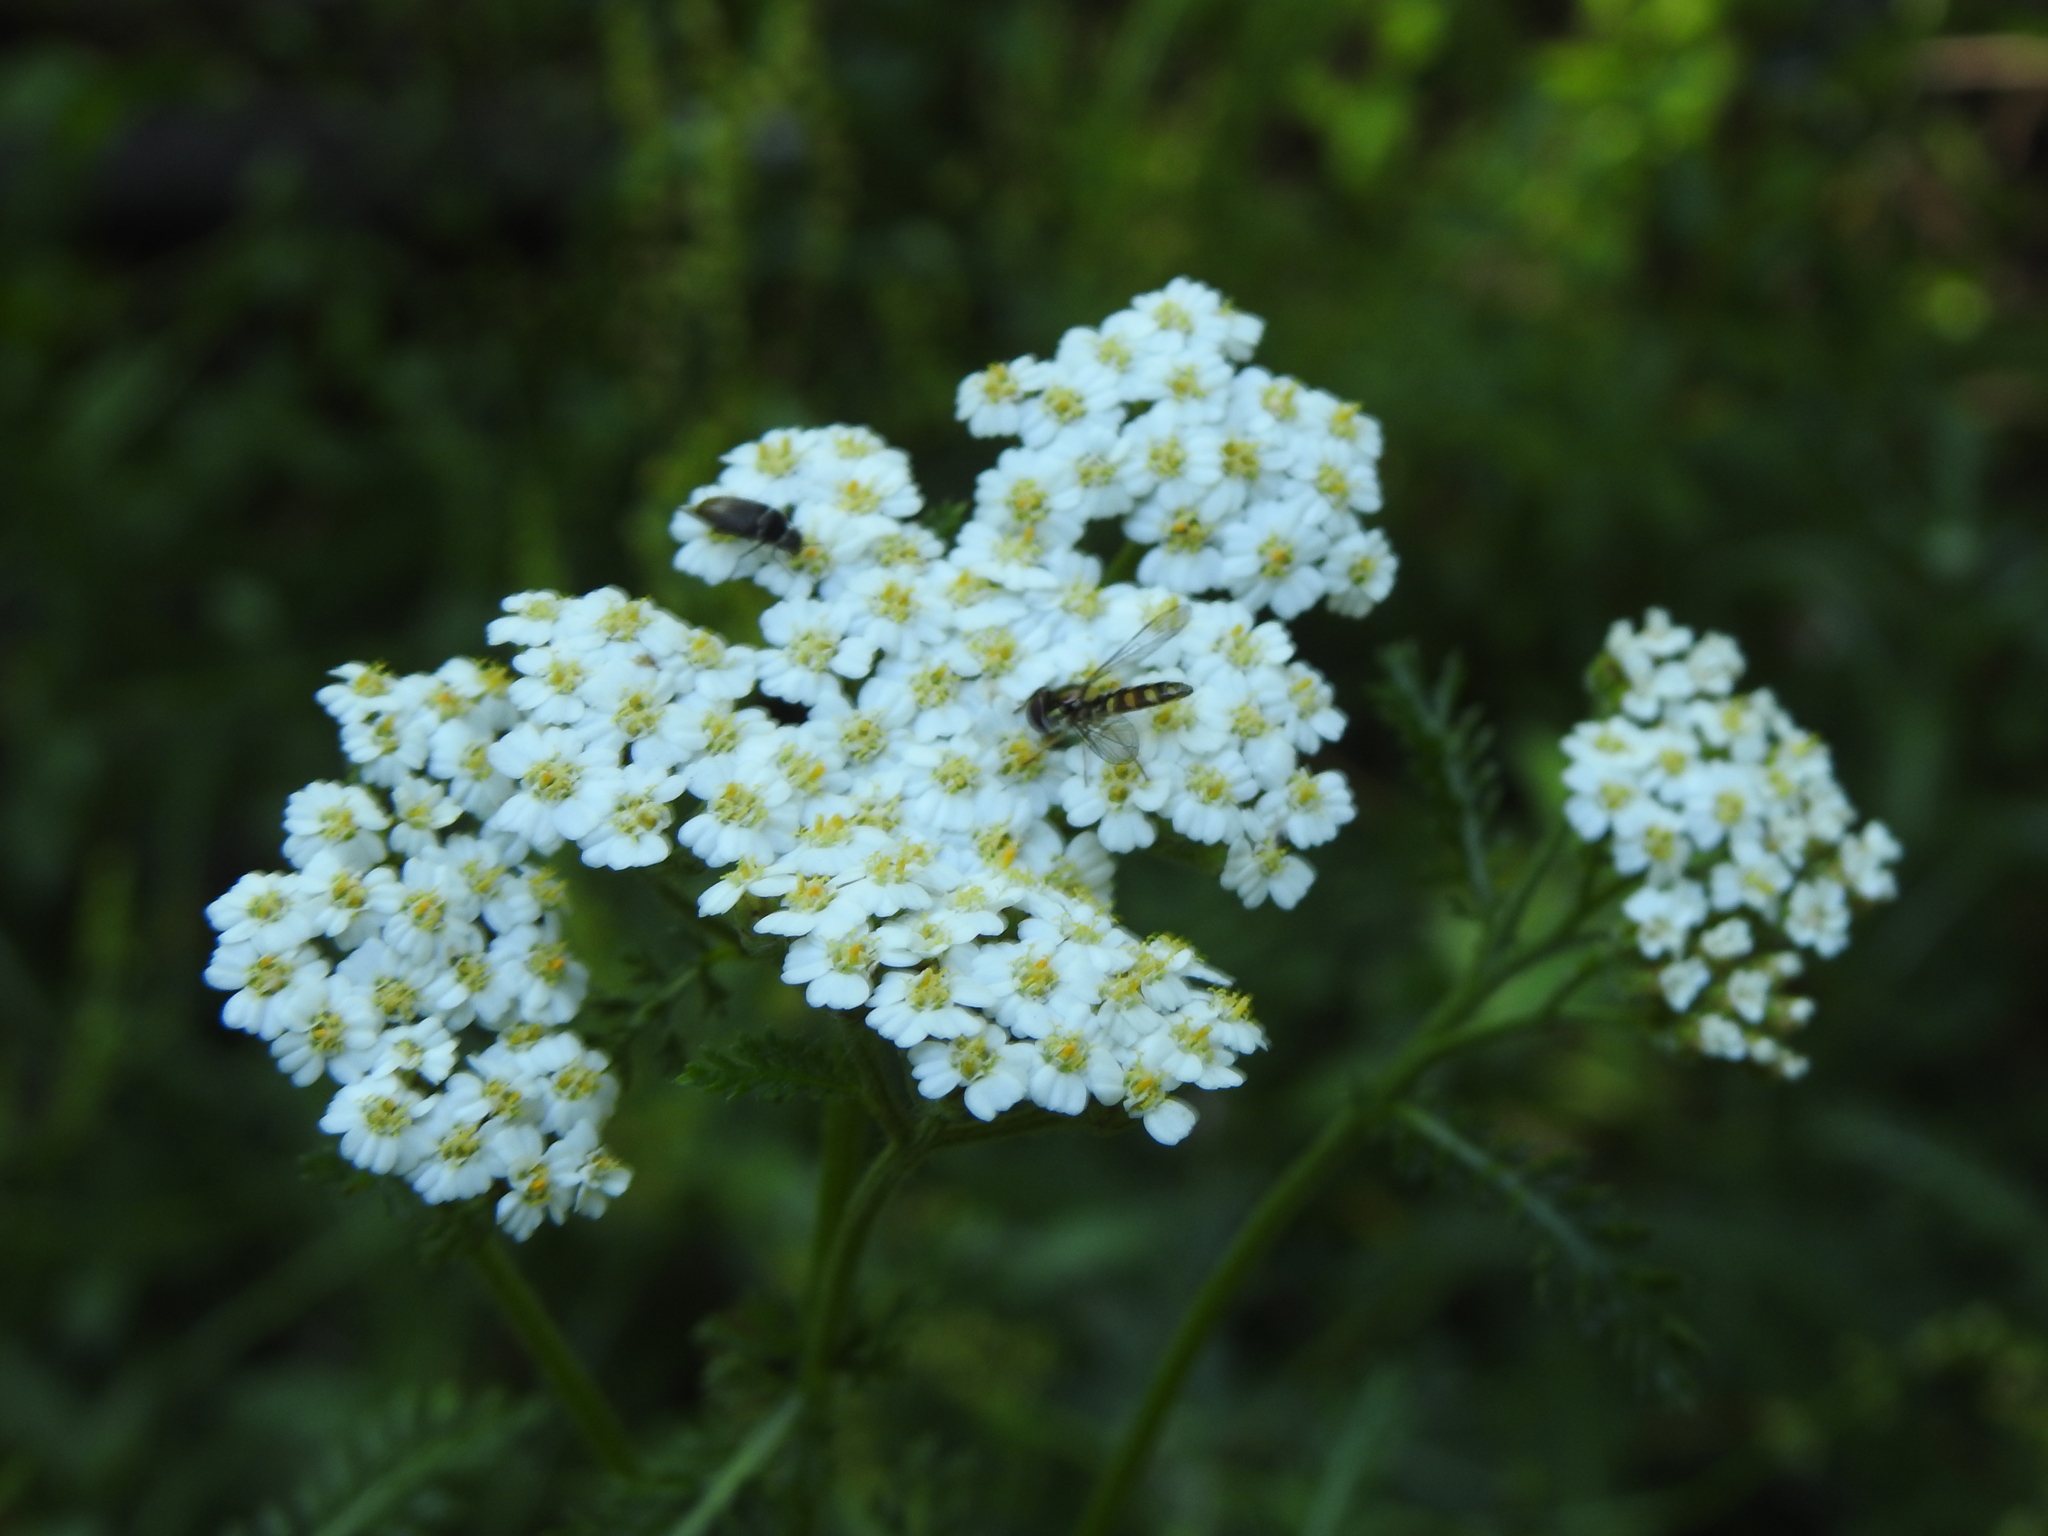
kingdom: Plantae
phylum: Tracheophyta
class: Magnoliopsida
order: Asterales
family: Asteraceae
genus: Achillea
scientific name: Achillea millefolium
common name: Yarrow
